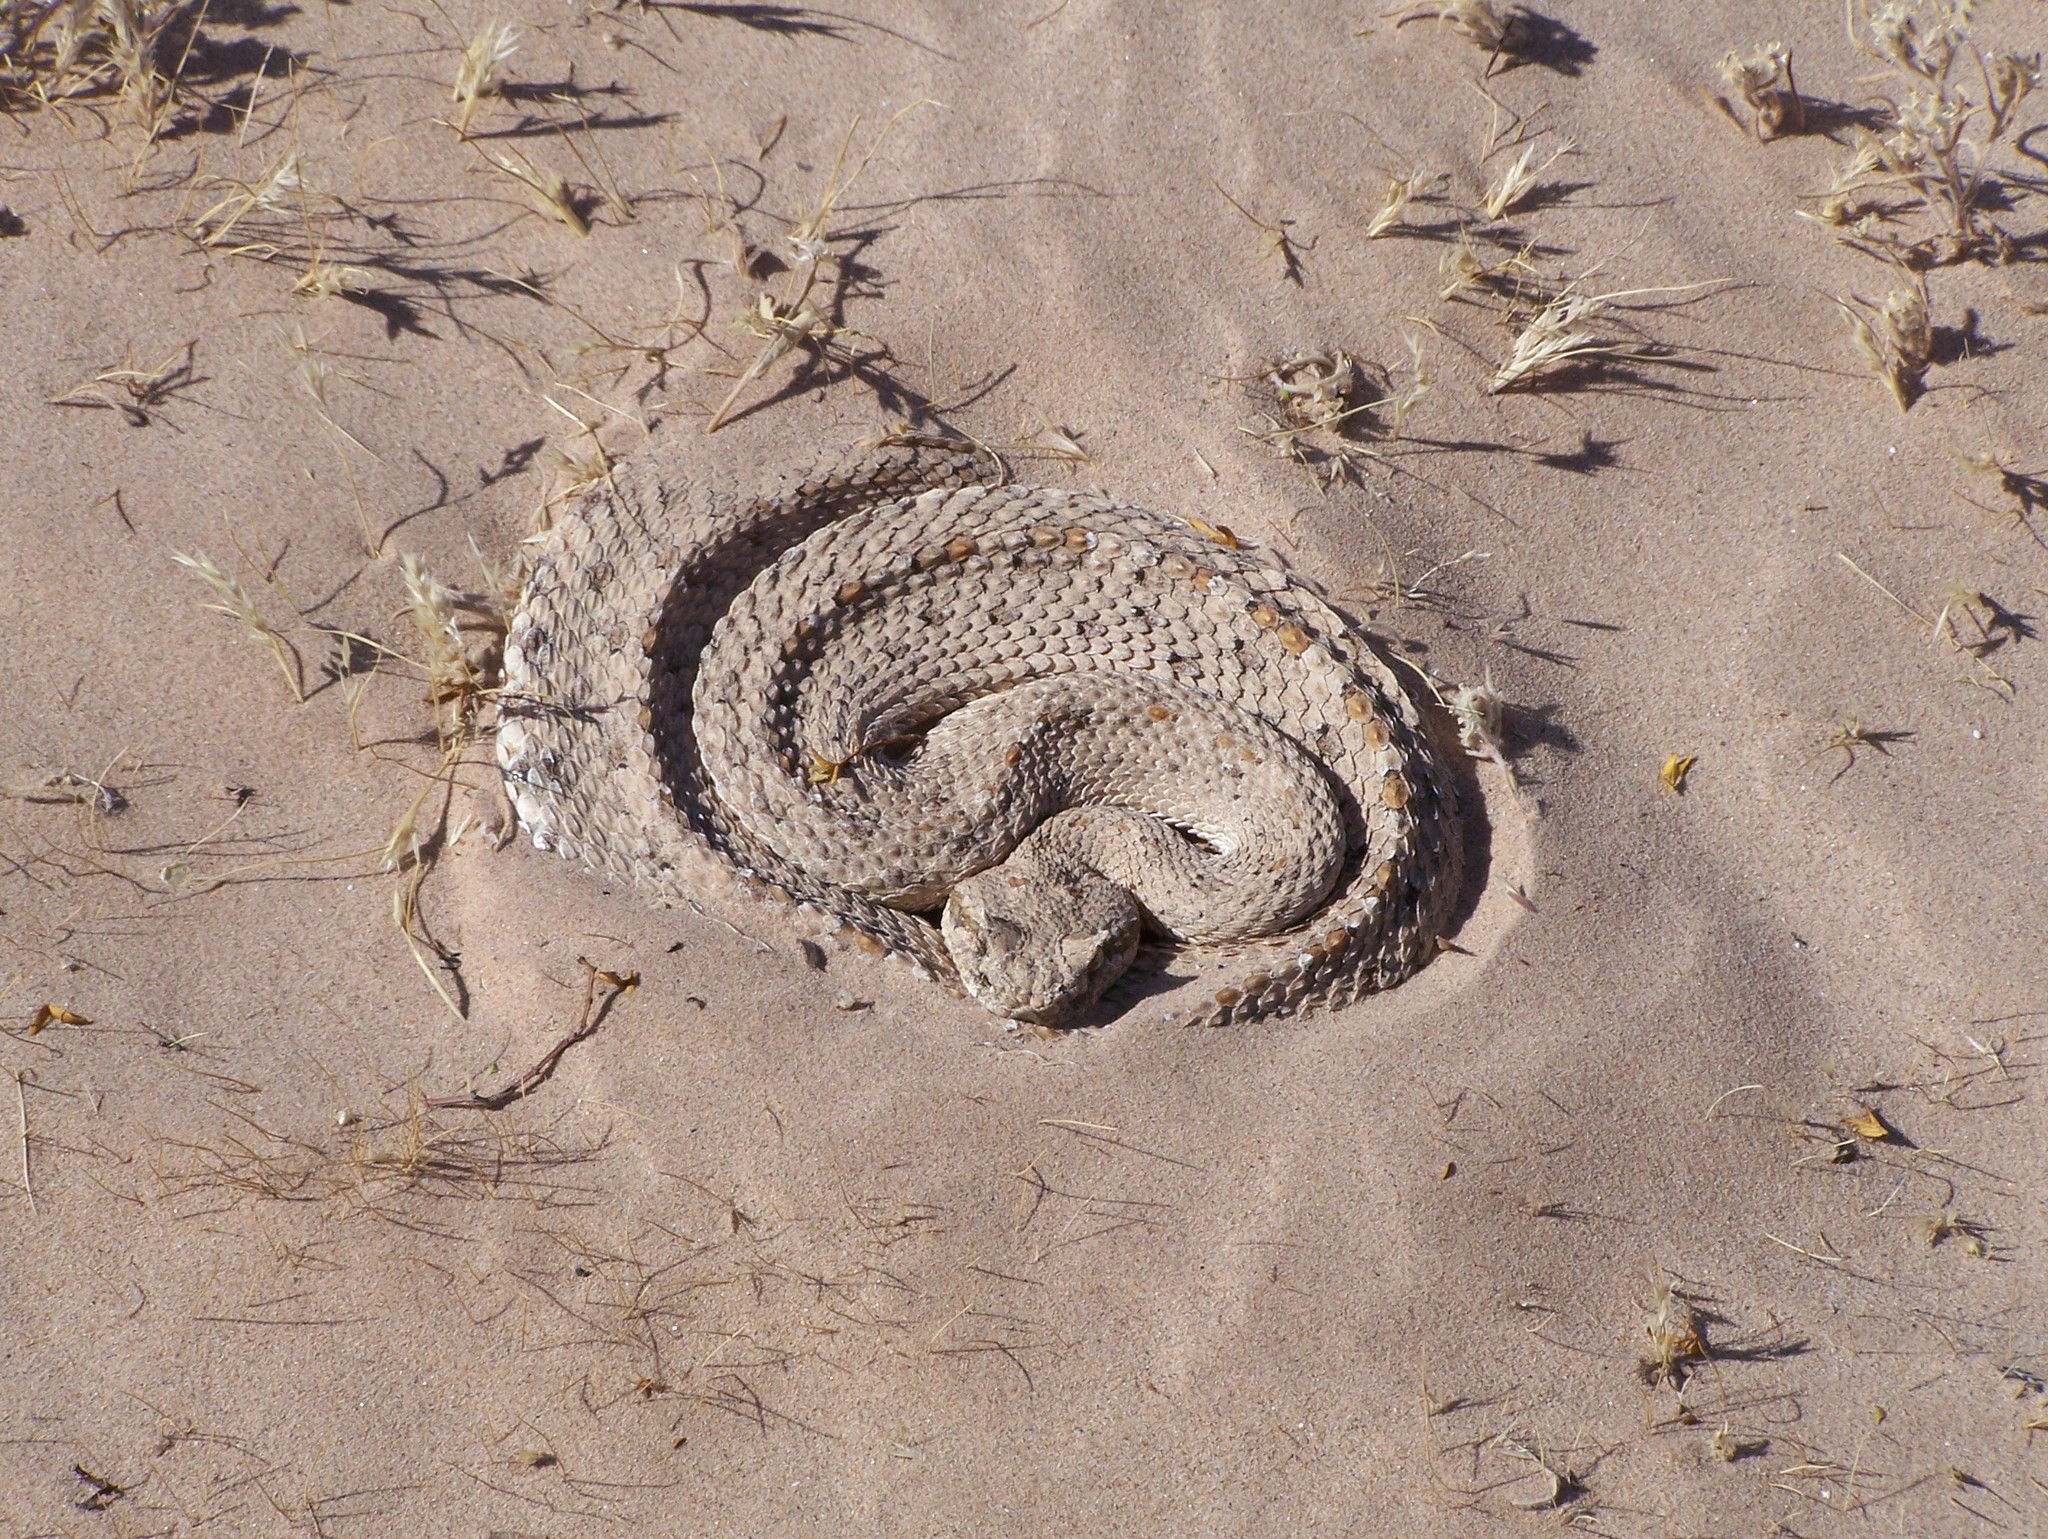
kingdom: Animalia
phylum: Chordata
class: Squamata
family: Viperidae
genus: Crotalus
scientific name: Crotalus cerastes
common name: Sidewinder
